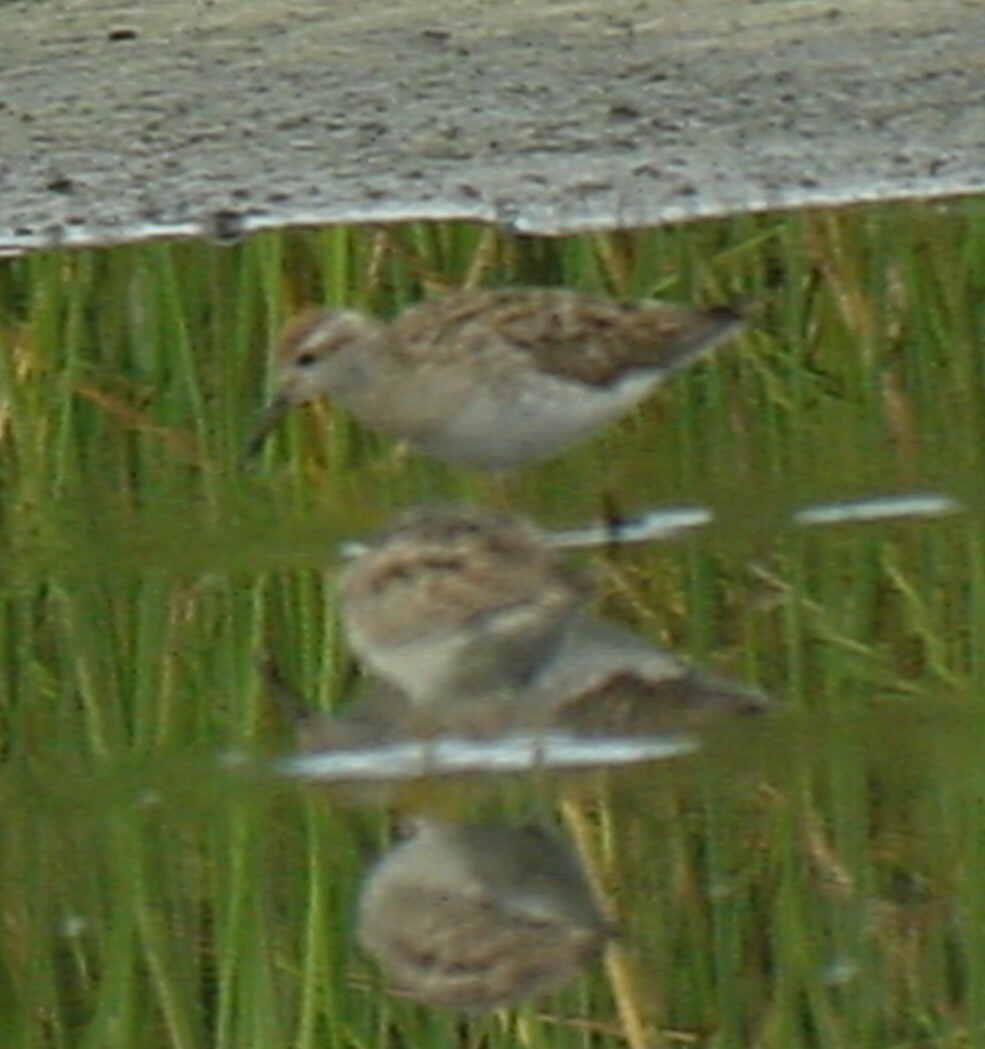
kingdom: Animalia
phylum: Chordata
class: Aves
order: Charadriiformes
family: Scolopacidae
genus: Calidris
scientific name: Calidris acuminata
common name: Sharp-tailed sandpiper
